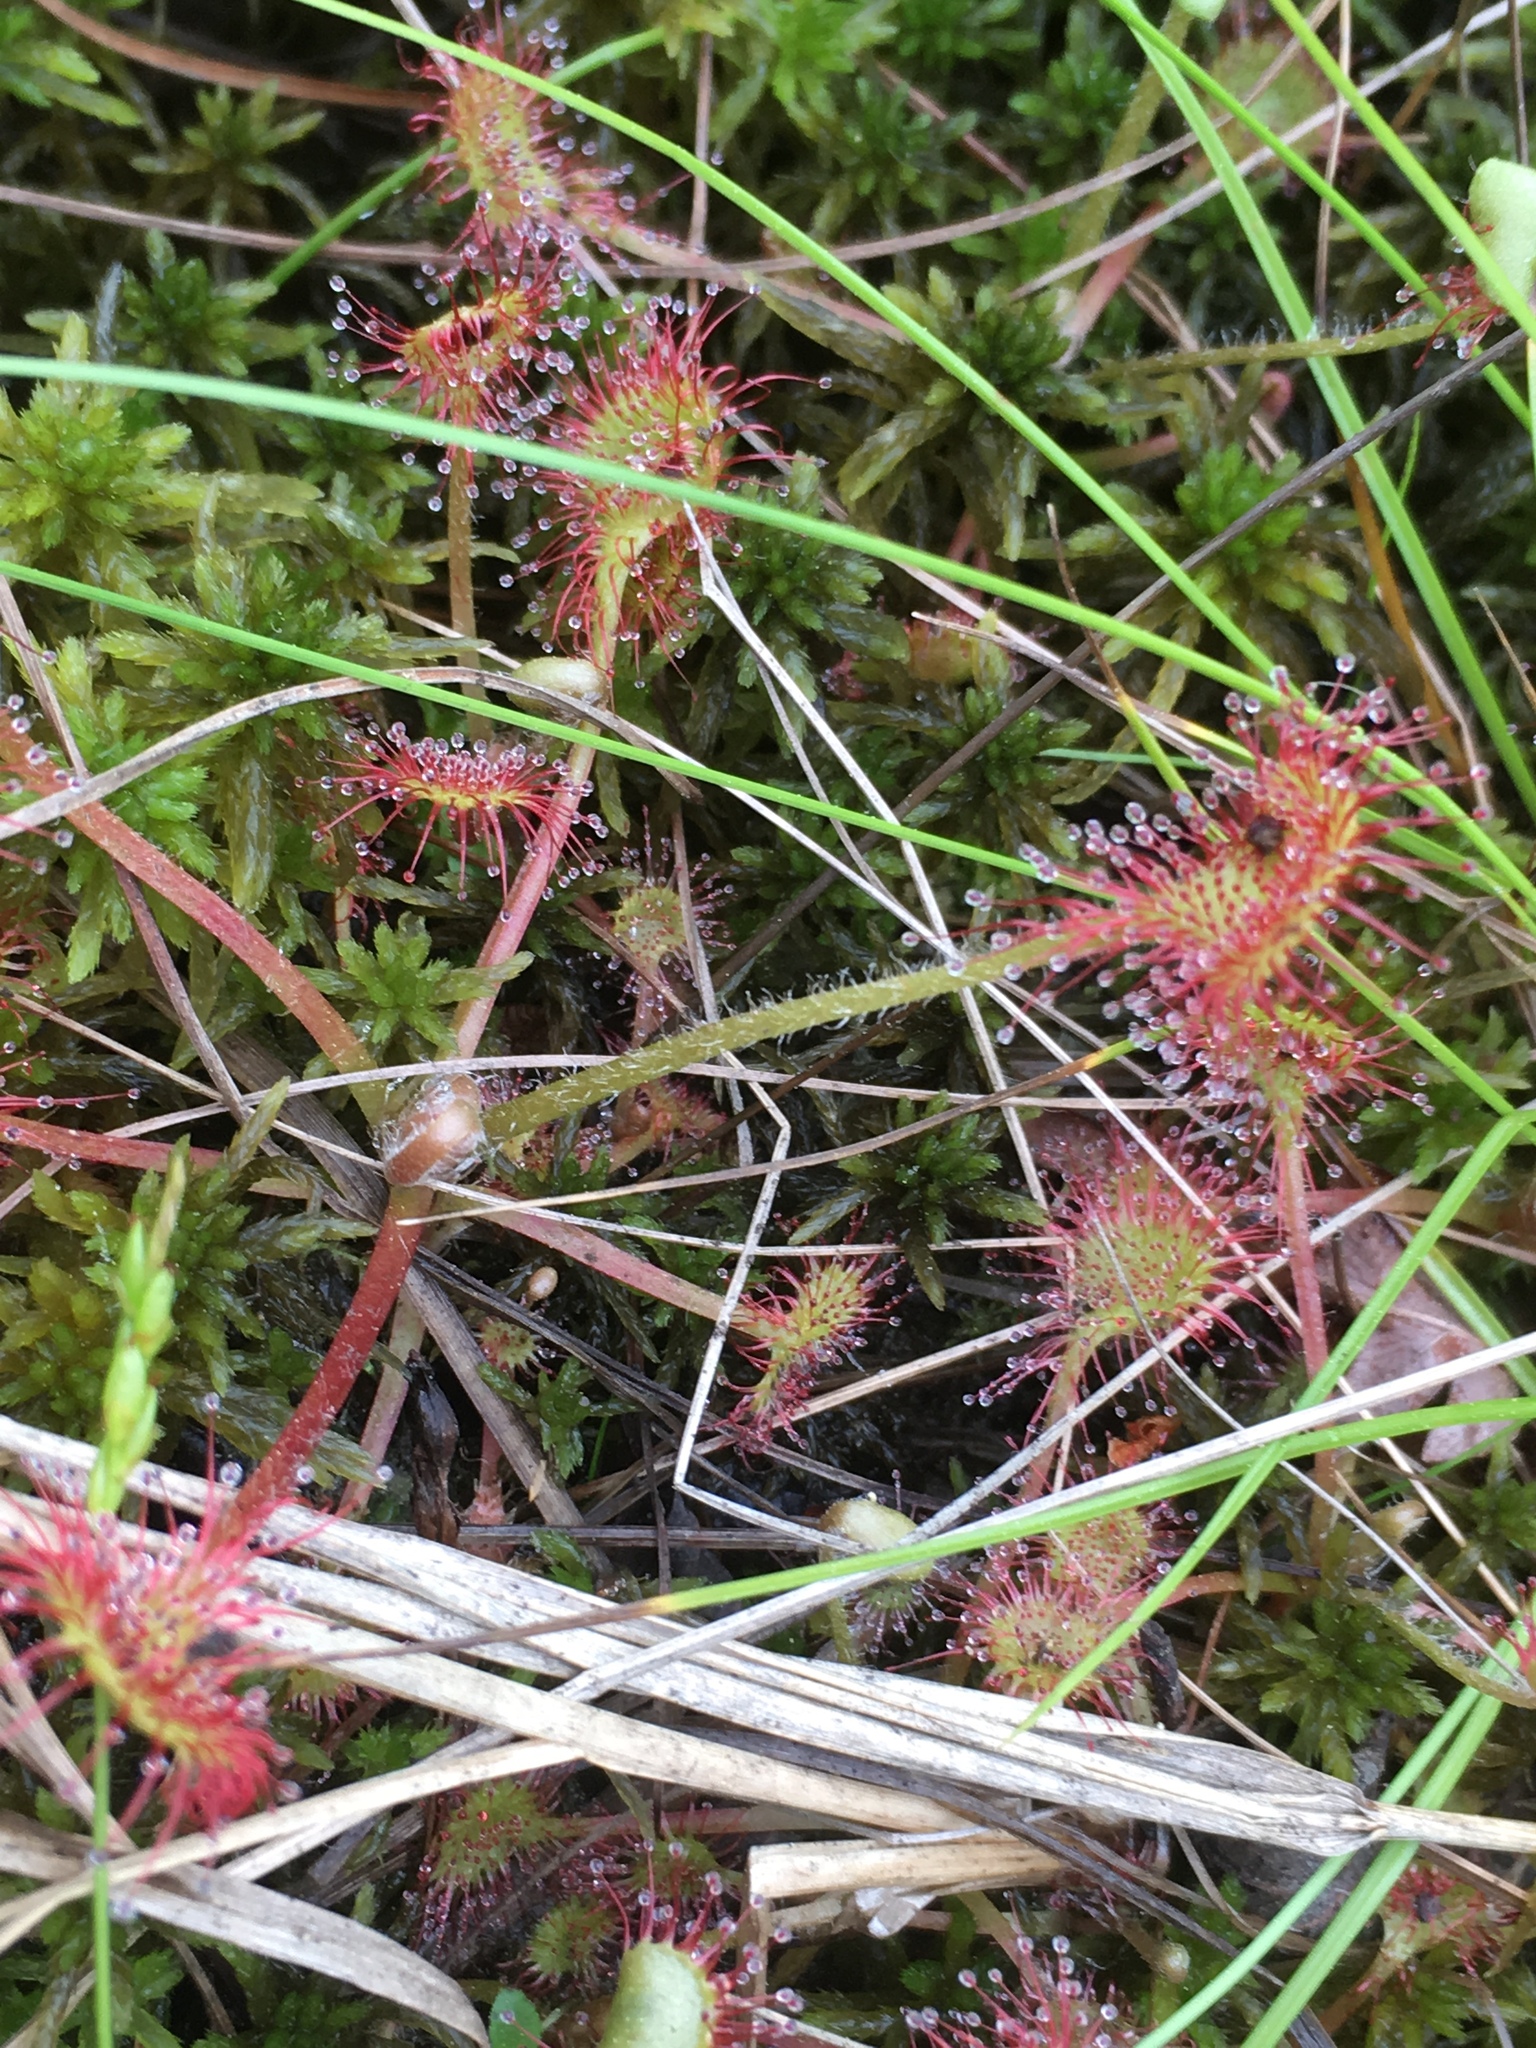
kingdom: Plantae
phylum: Tracheophyta
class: Magnoliopsida
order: Caryophyllales
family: Droseraceae
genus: Drosera
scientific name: Drosera rotundifolia
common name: Round-leaved sundew
